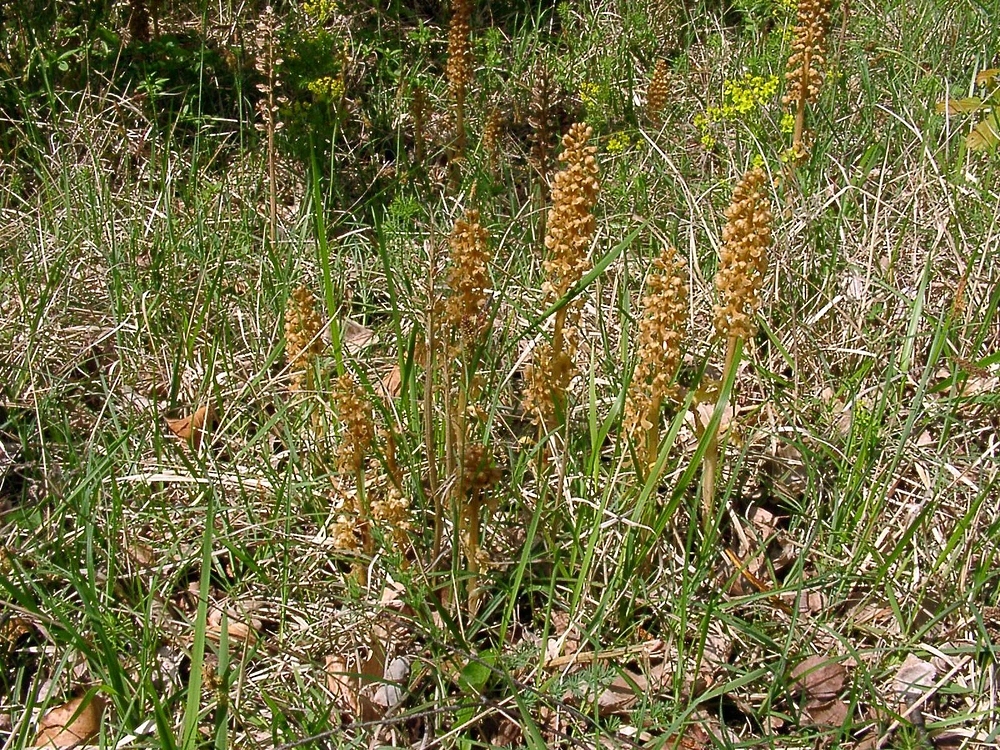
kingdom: Plantae
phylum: Tracheophyta
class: Liliopsida
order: Asparagales
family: Orchidaceae
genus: Neottia
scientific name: Neottia nidus-avis
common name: Bird's-nest orchid
